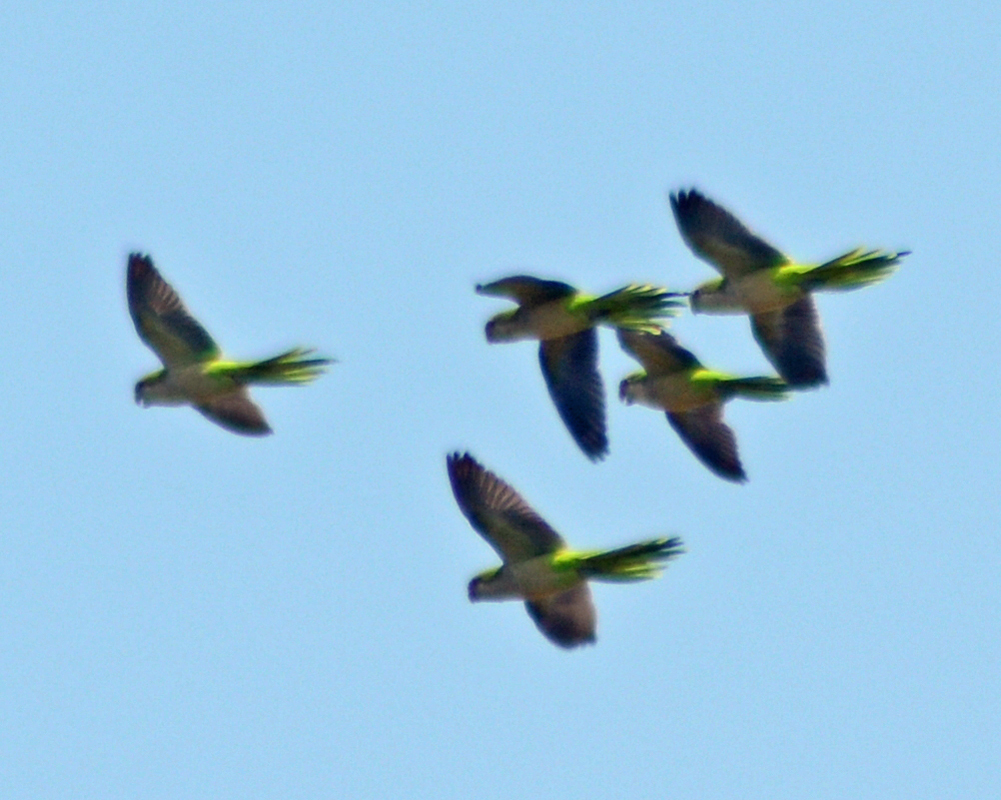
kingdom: Animalia
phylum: Chordata
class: Aves
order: Psittaciformes
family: Psittacidae
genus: Myiopsitta
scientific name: Myiopsitta monachus
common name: Monk parakeet
